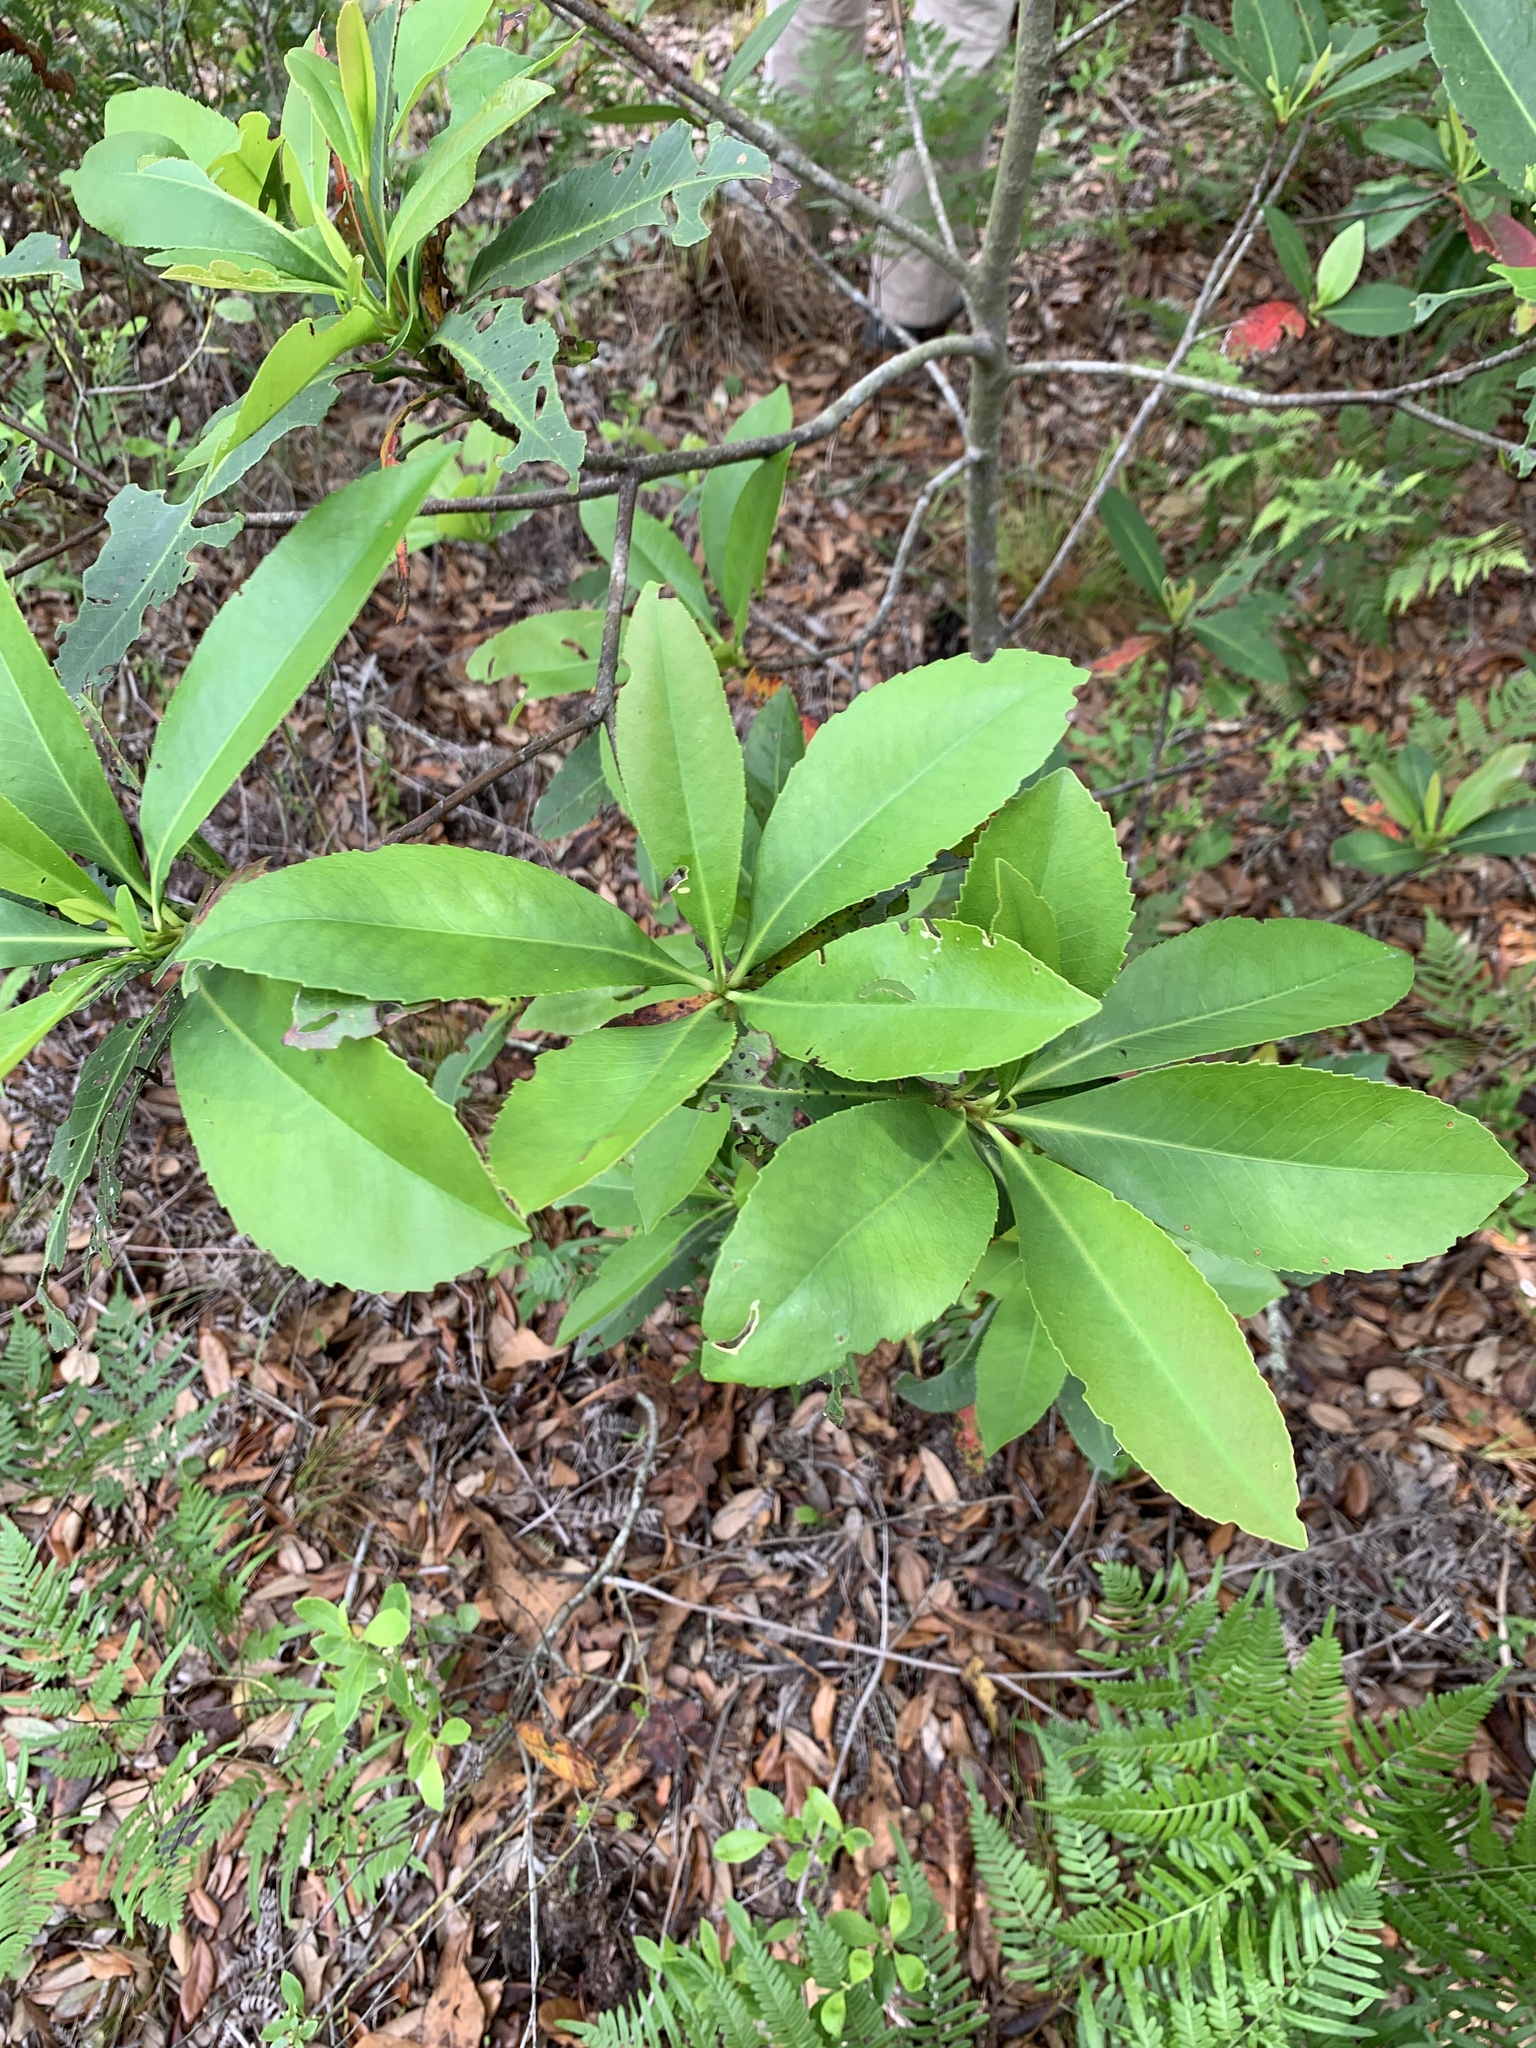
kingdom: Plantae
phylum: Tracheophyta
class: Magnoliopsida
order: Ericales
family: Theaceae
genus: Gordonia
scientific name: Gordonia lasianthus
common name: Loblolly bay
